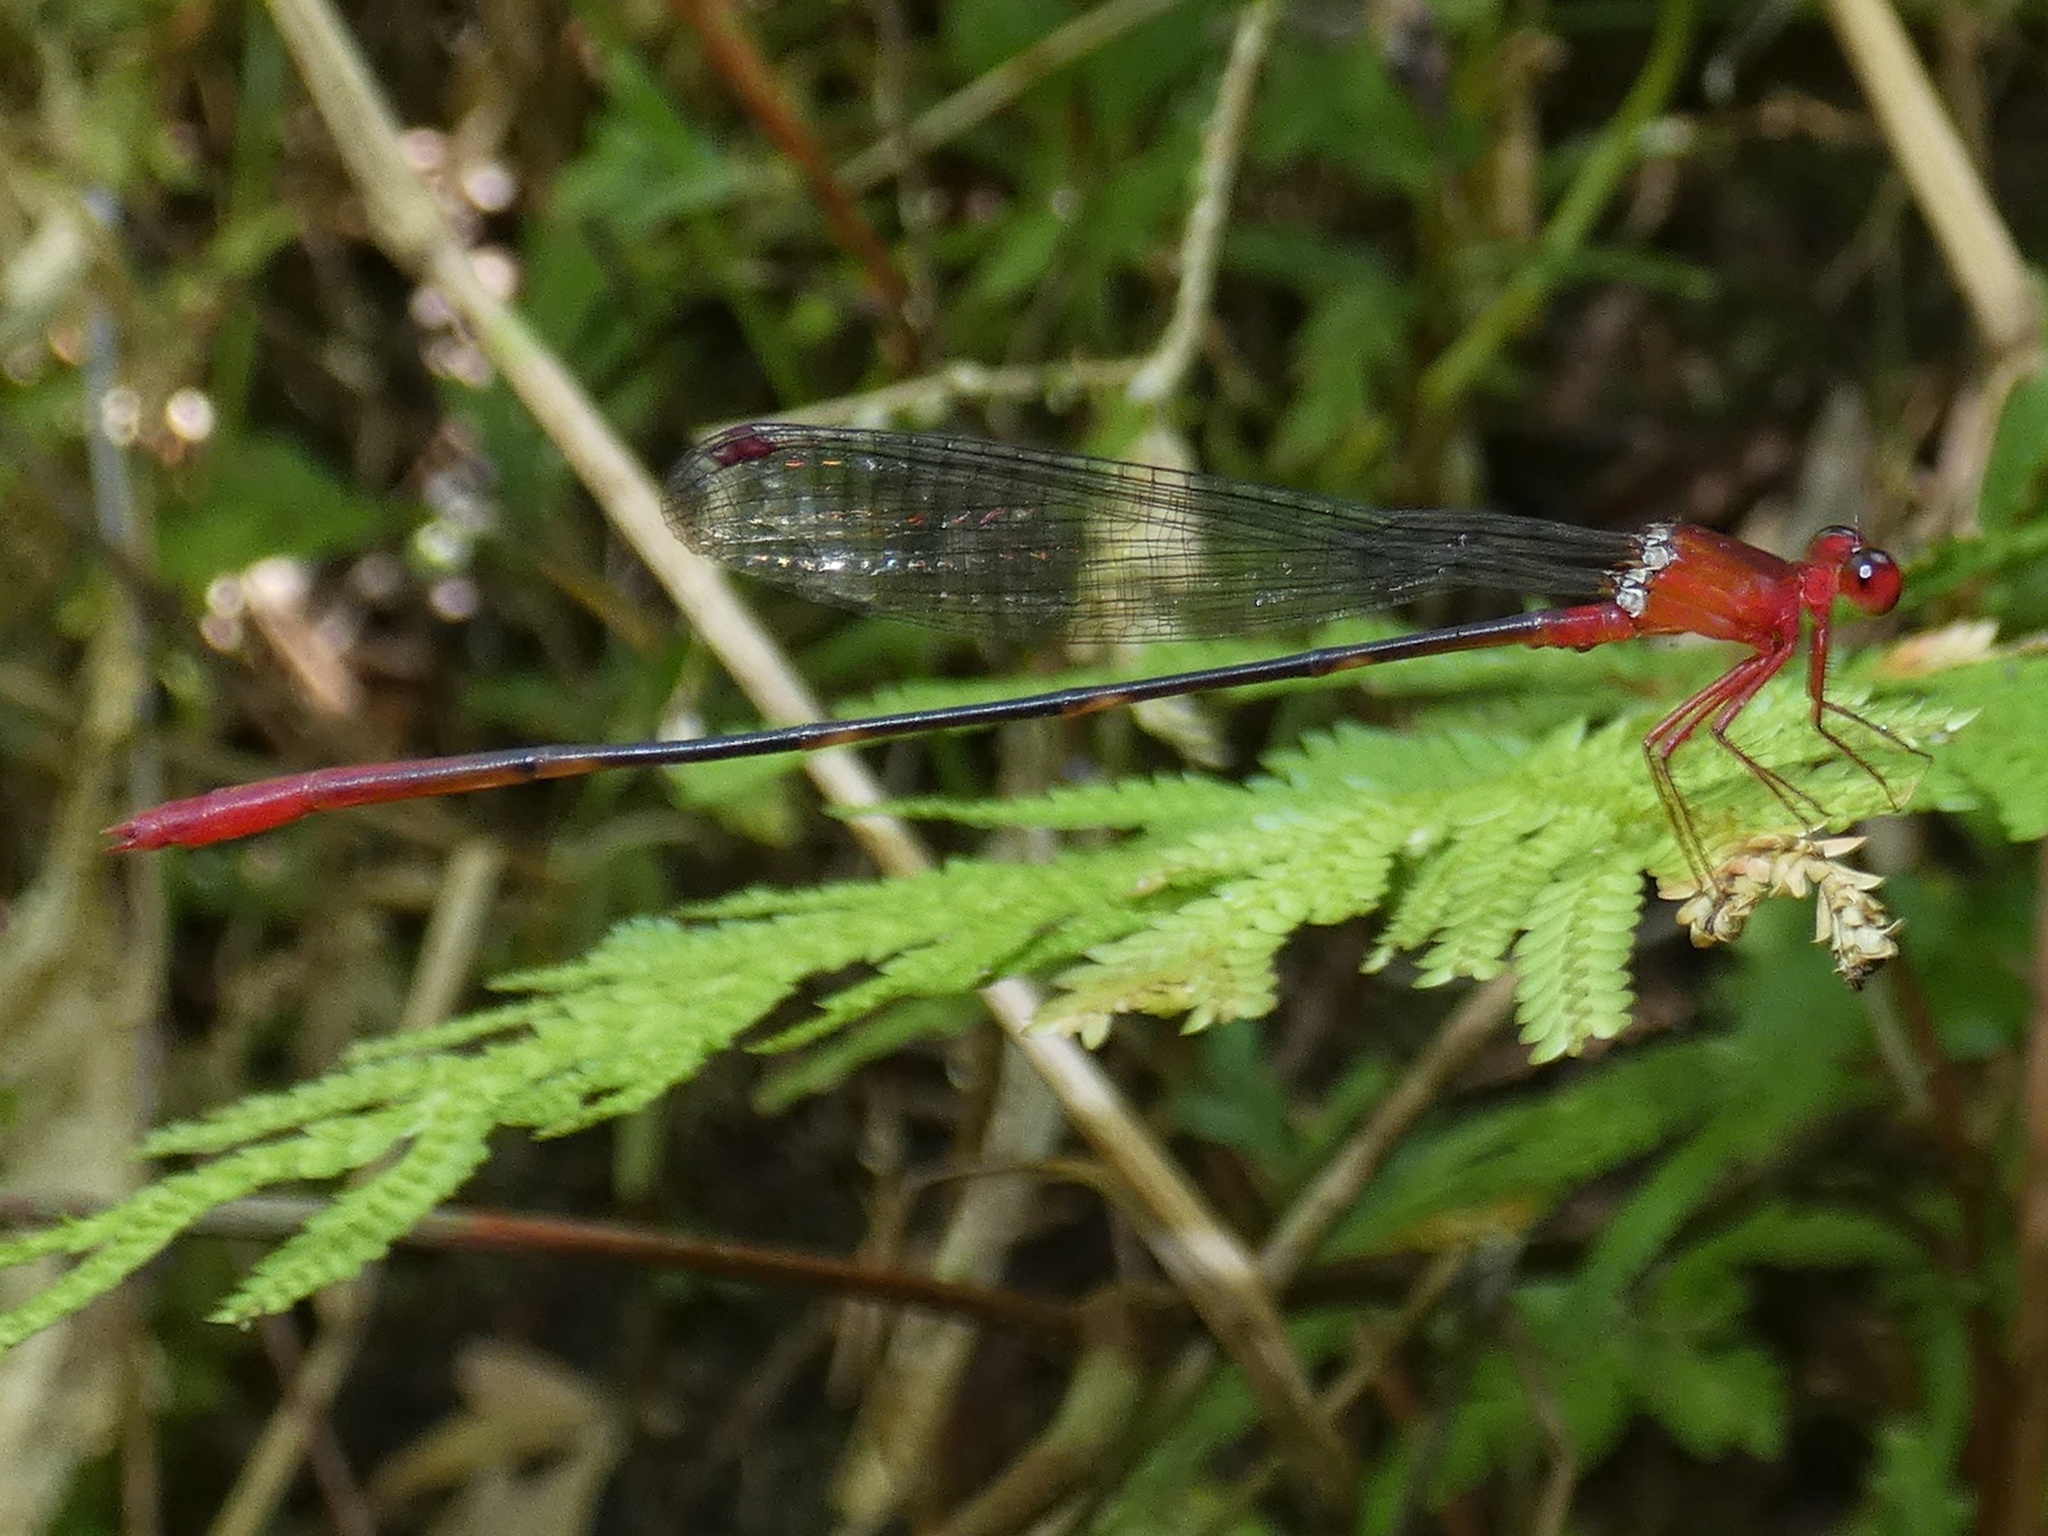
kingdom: Animalia
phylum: Arthropoda
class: Insecta
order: Odonata
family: Platycnemididae
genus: Risiocnemis
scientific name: Risiocnemis appendiculata
